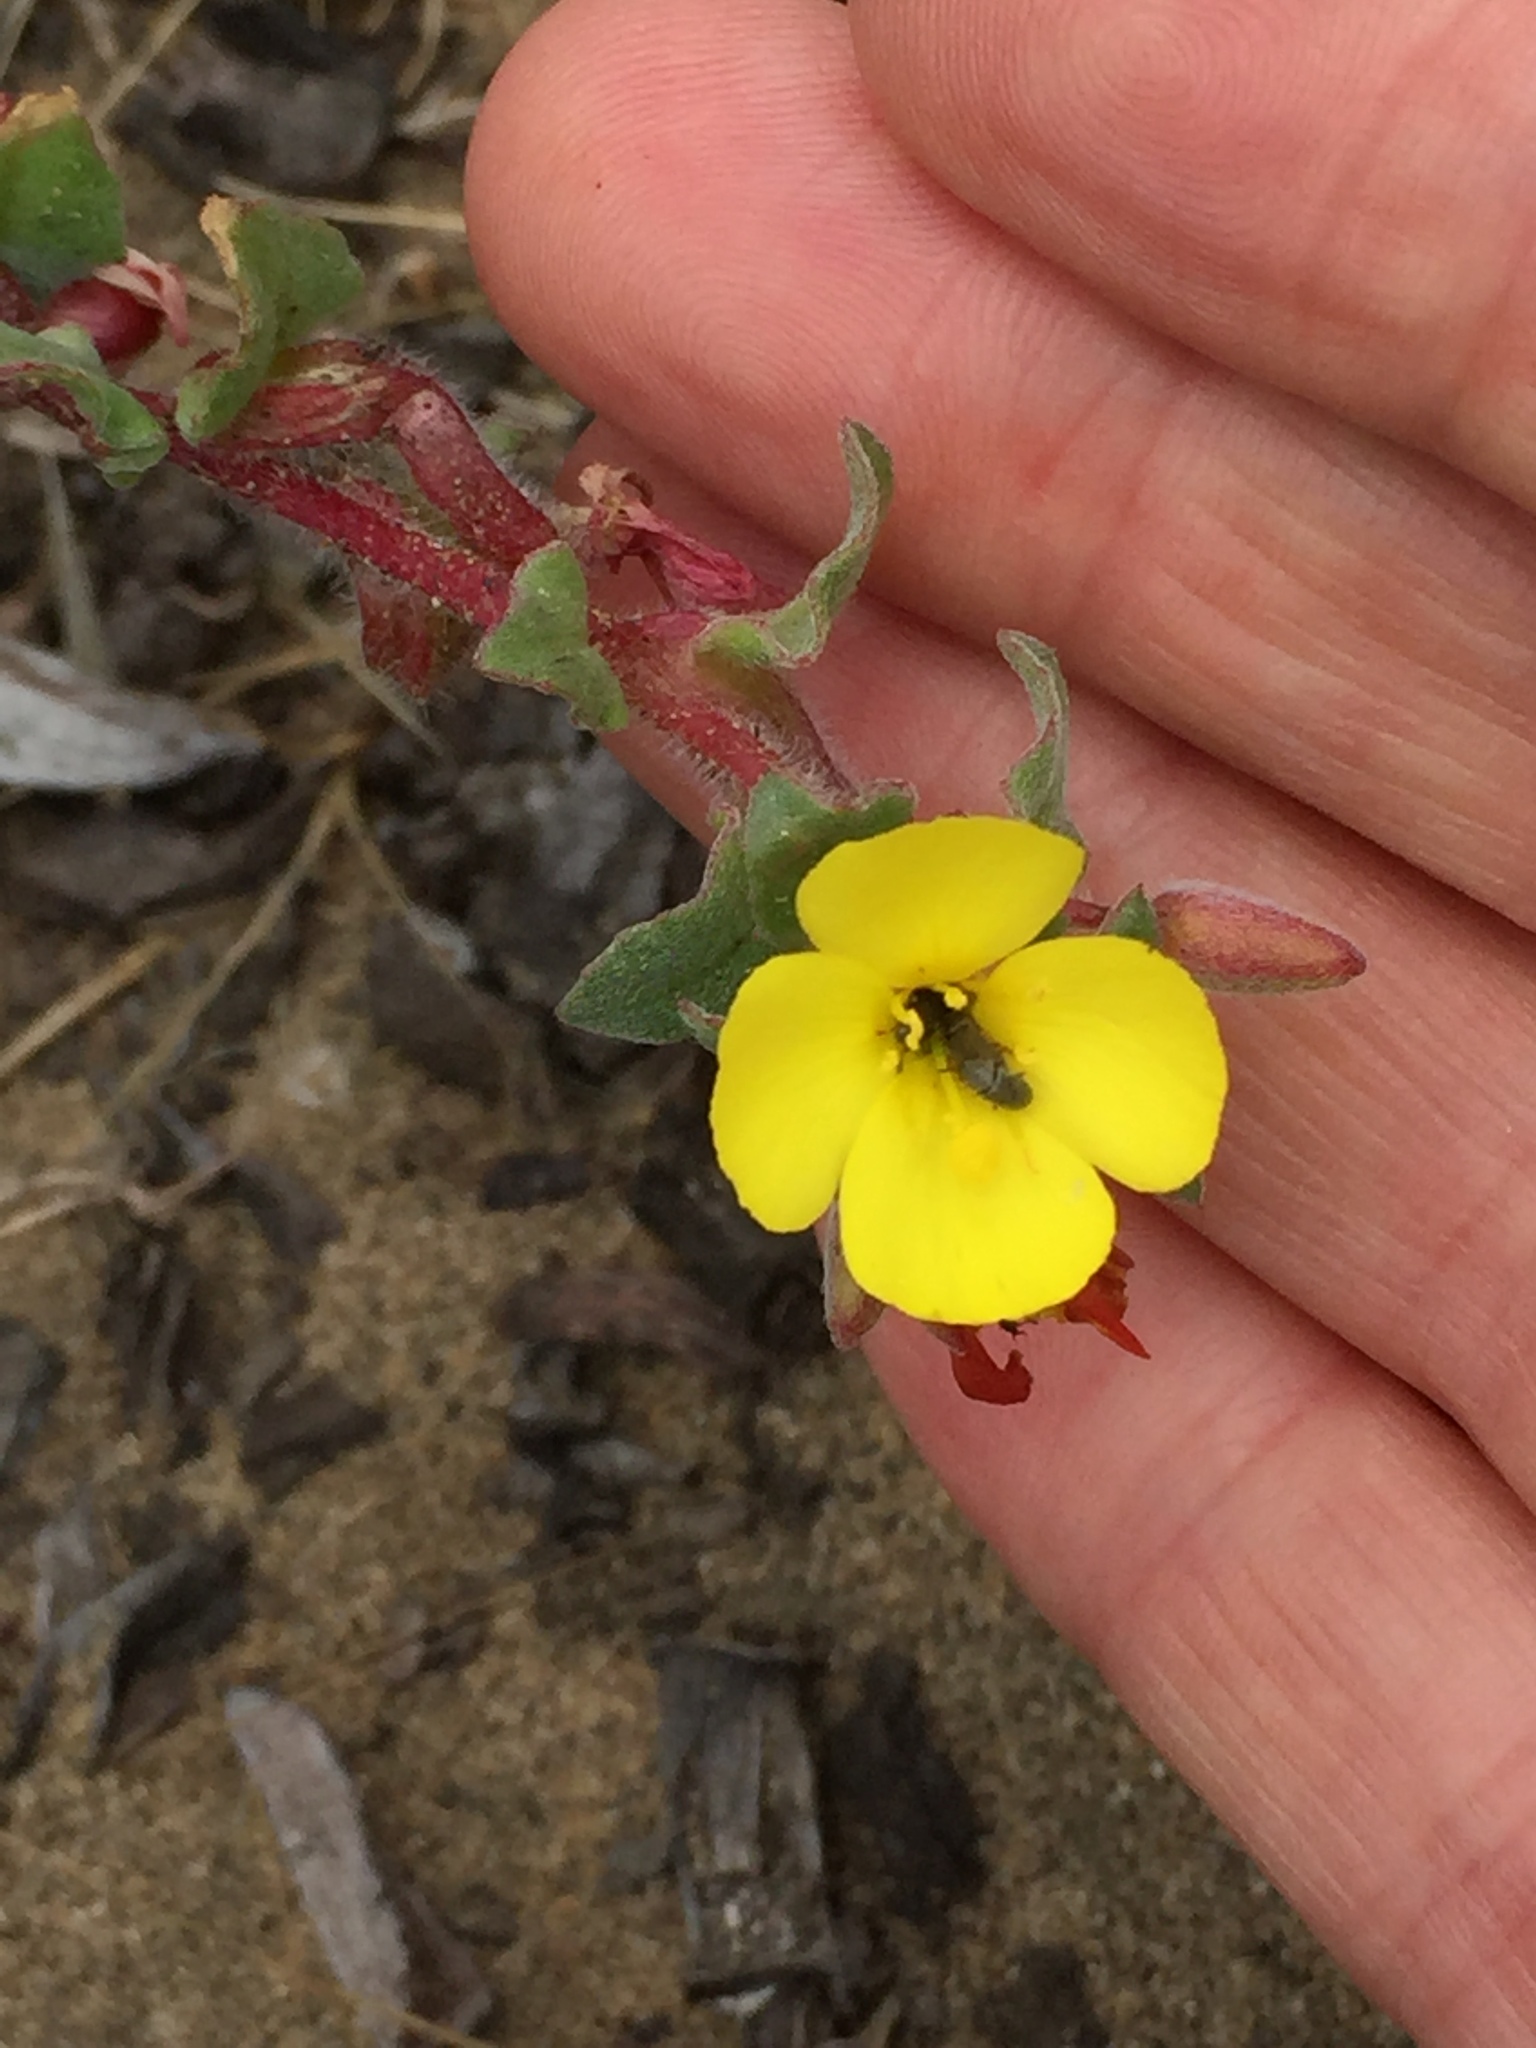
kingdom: Plantae
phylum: Tracheophyta
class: Magnoliopsida
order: Myrtales
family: Onagraceae
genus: Camissoniopsis
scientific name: Camissoniopsis cheiranthifolia
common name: Beach suncup
